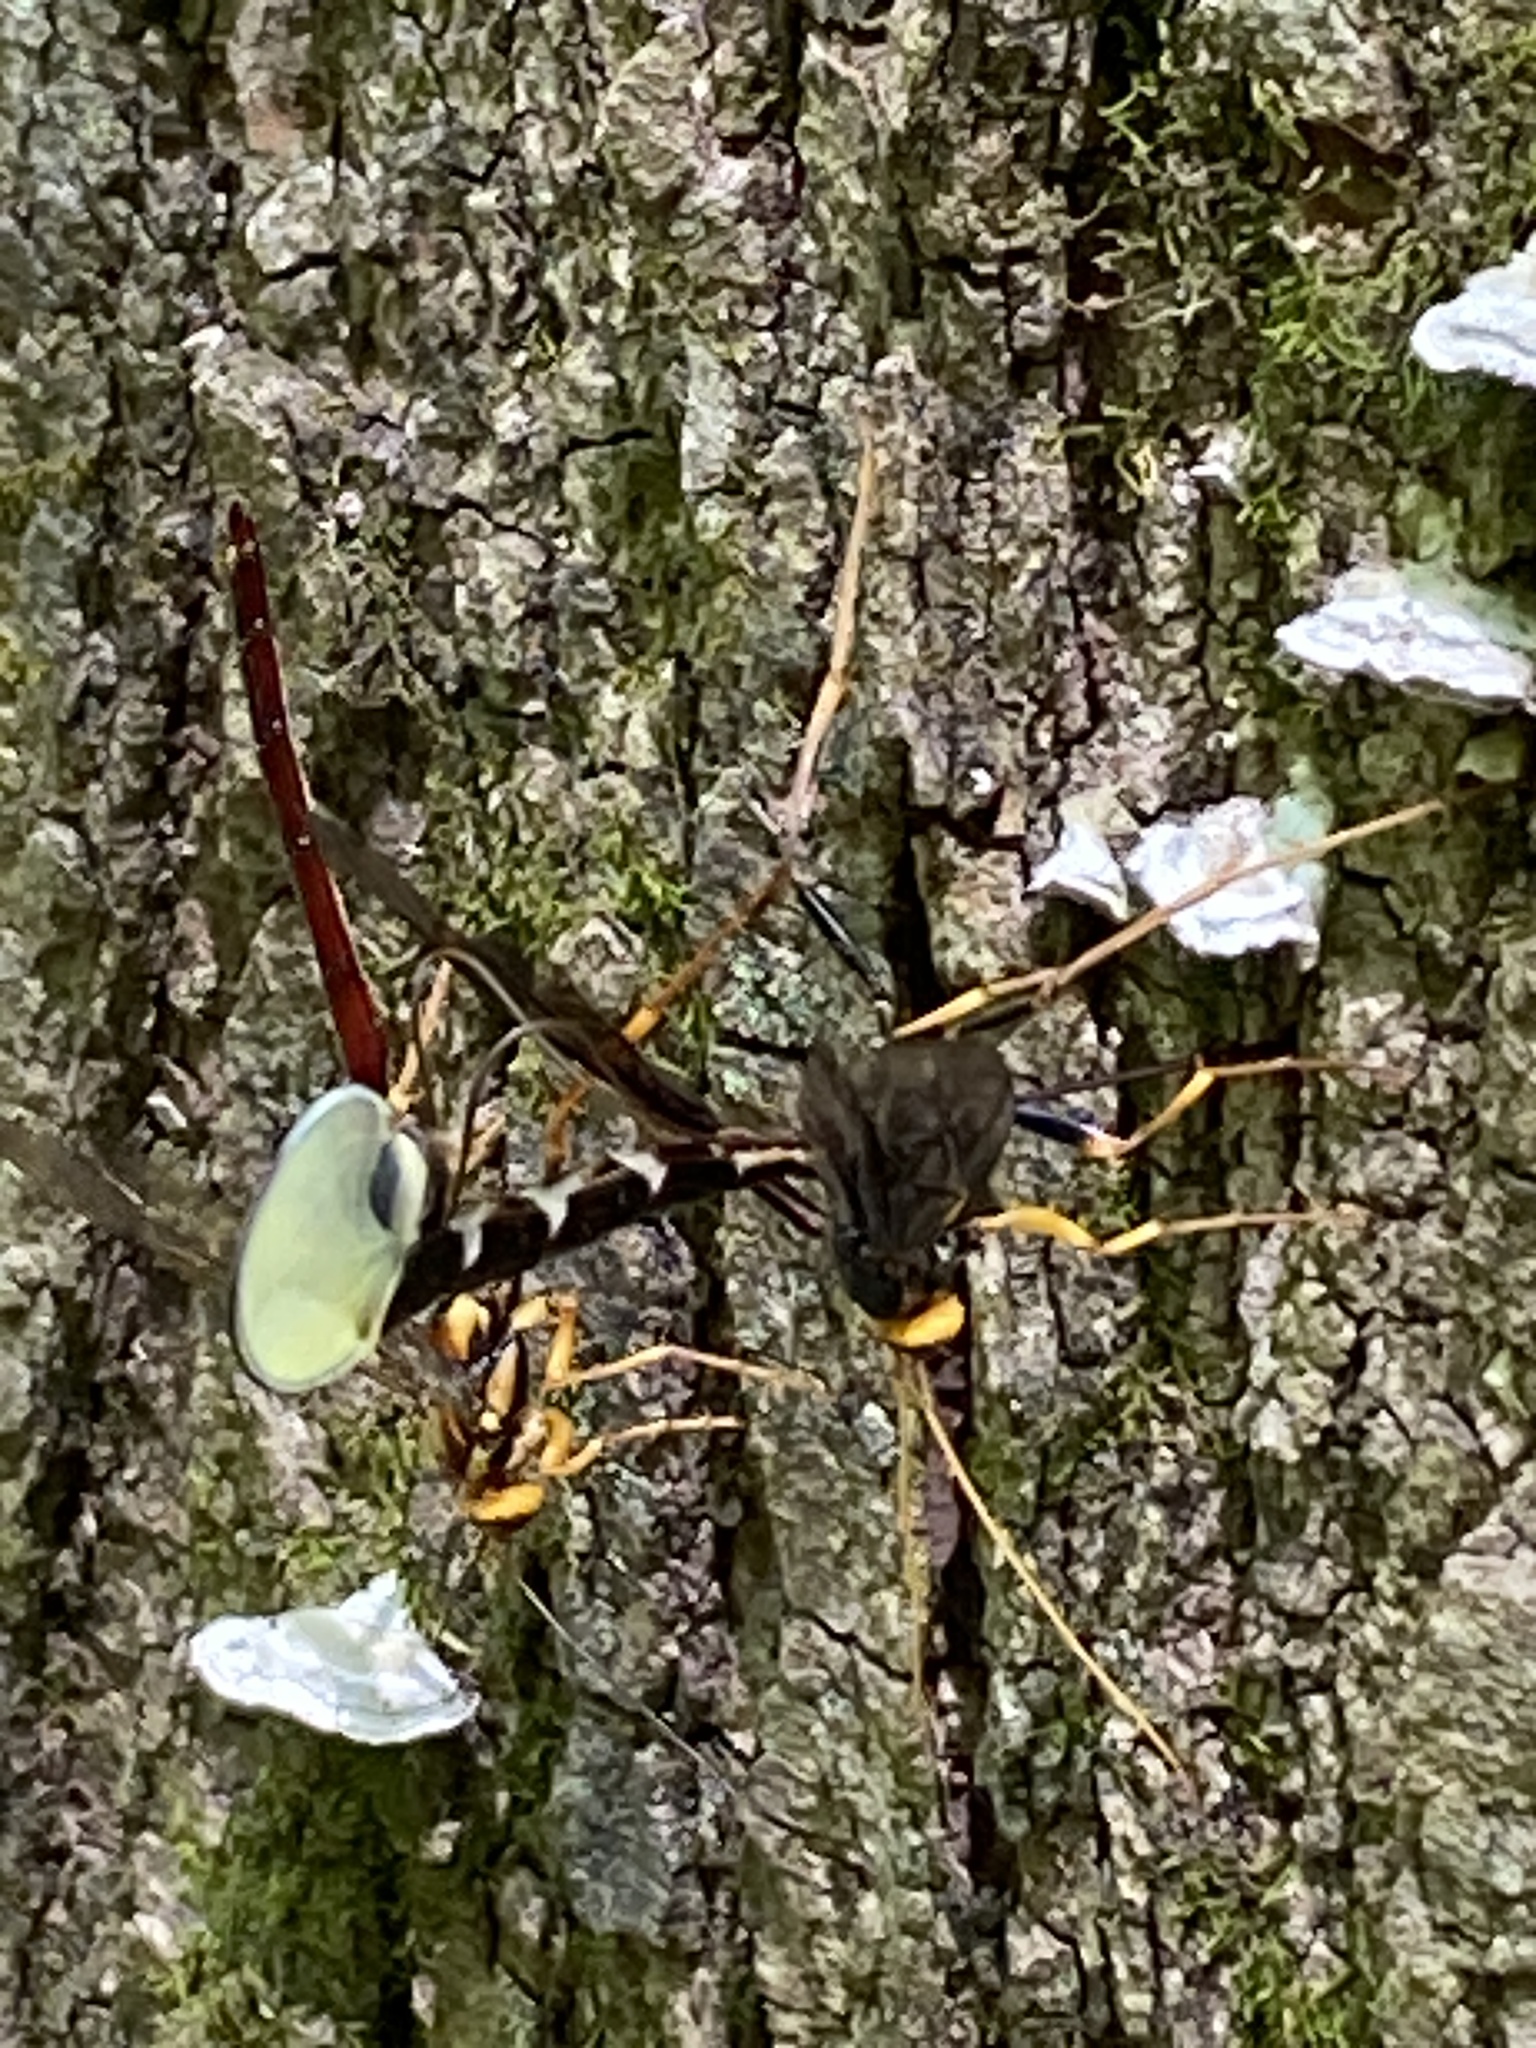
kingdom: Animalia
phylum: Arthropoda
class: Insecta
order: Hymenoptera
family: Ichneumonidae
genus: Megarhyssa
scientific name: Megarhyssa atrata
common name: Black giant ichneumonid wasp
